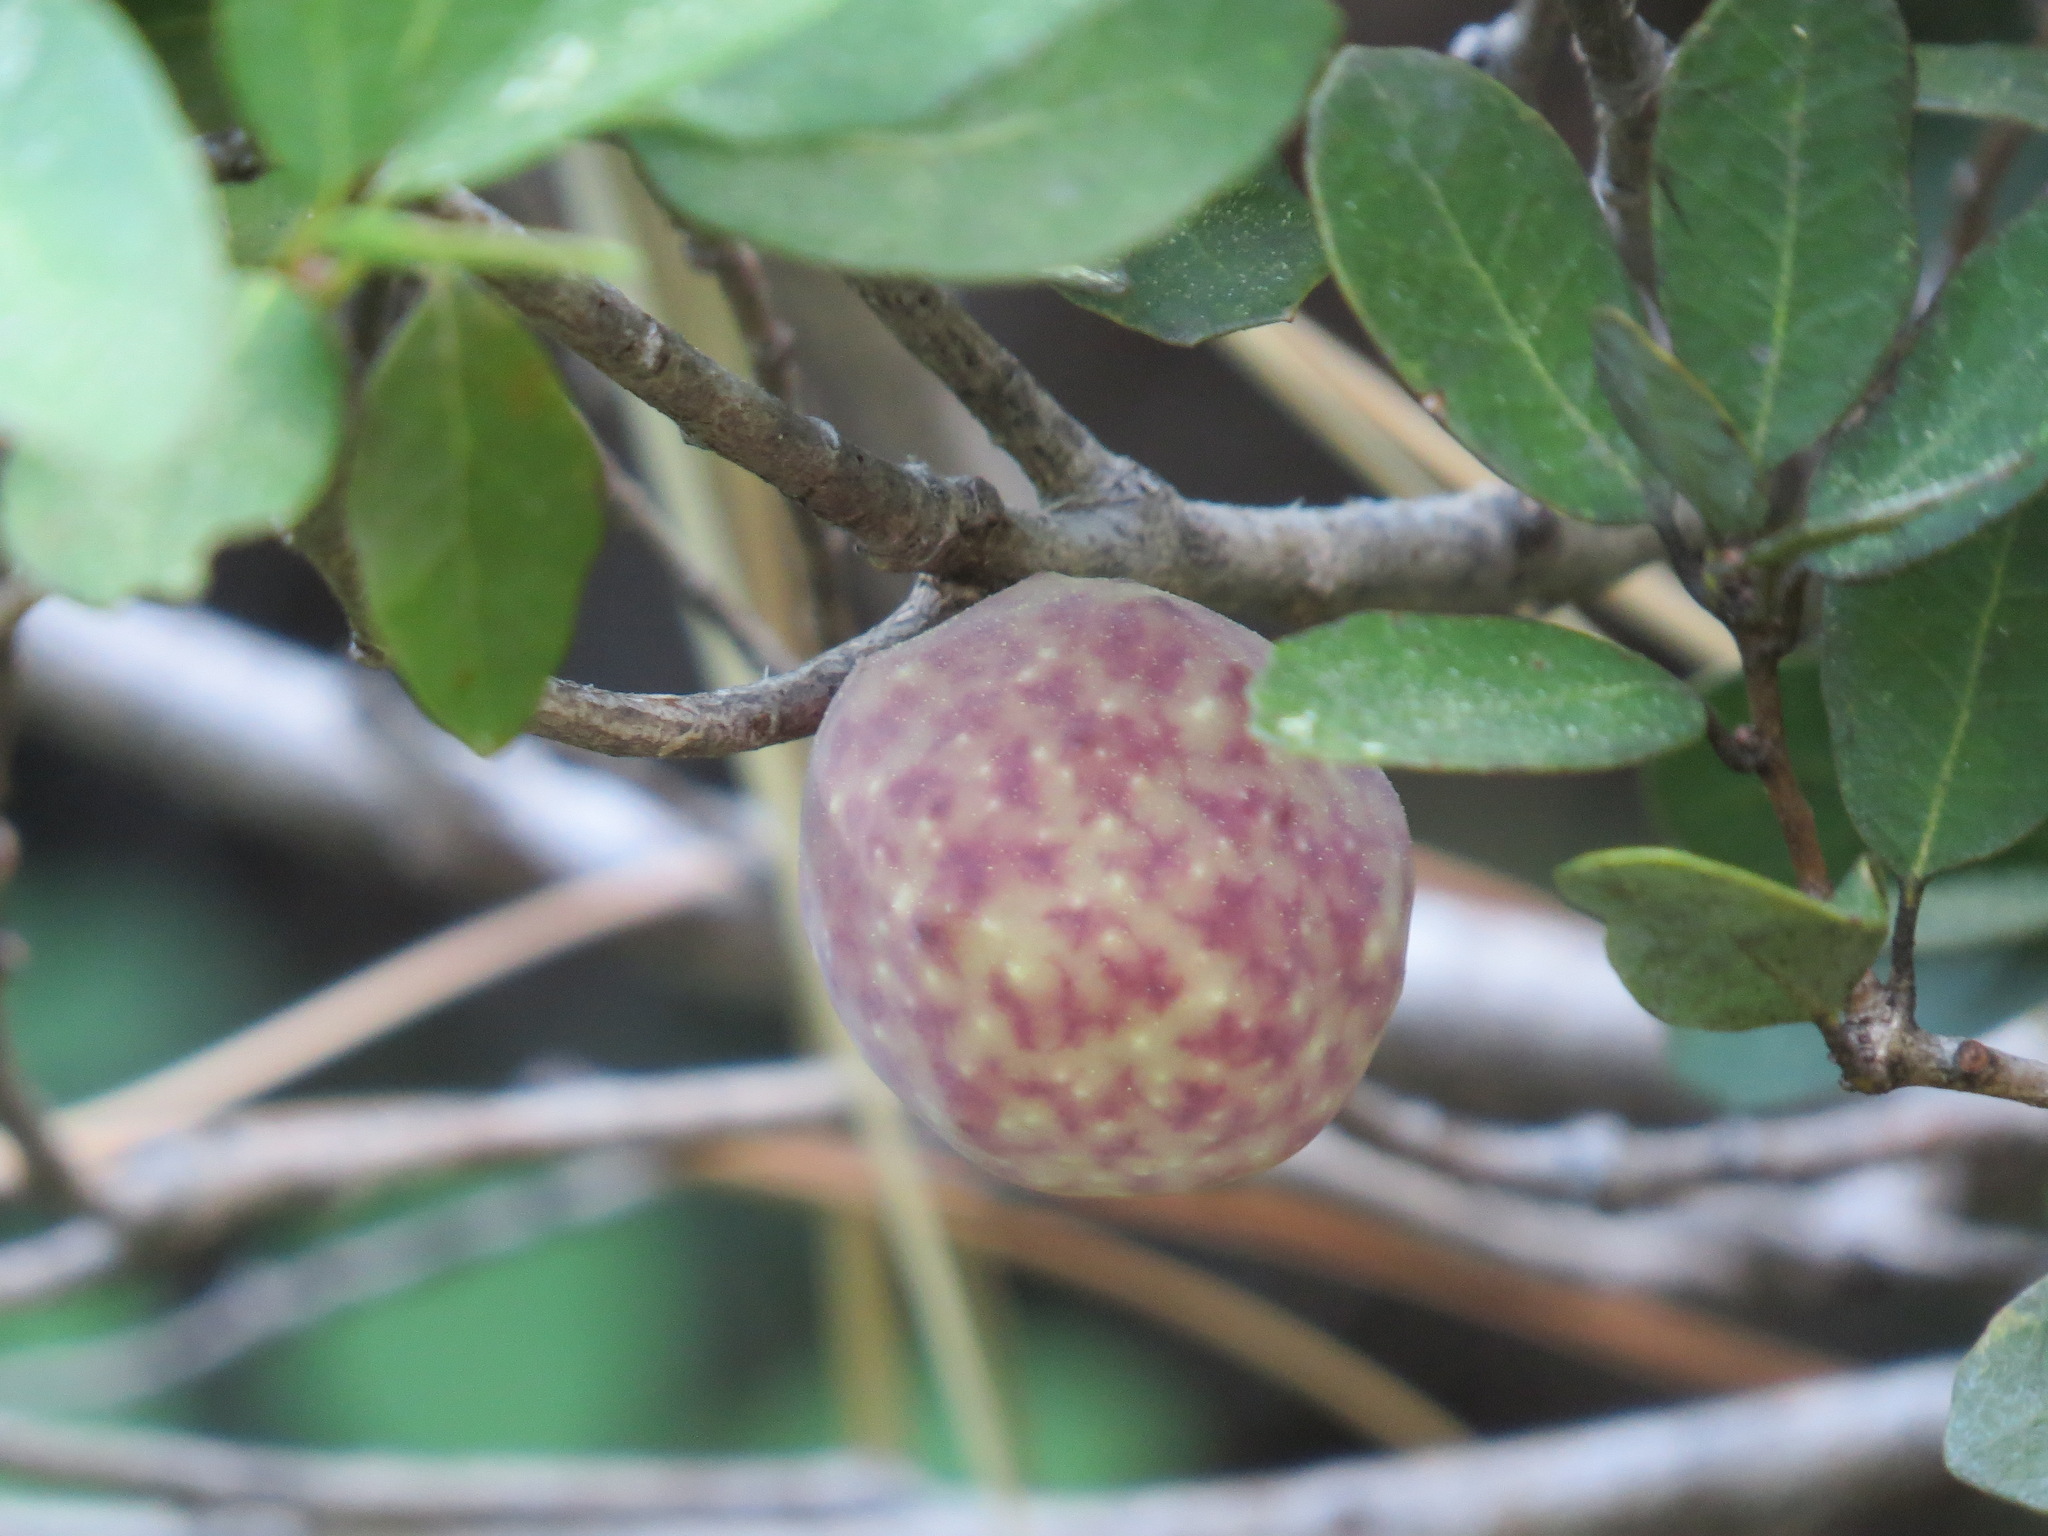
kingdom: Animalia
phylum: Arthropoda
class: Insecta
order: Hymenoptera
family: Cynipidae
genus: Andricus
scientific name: Andricus
